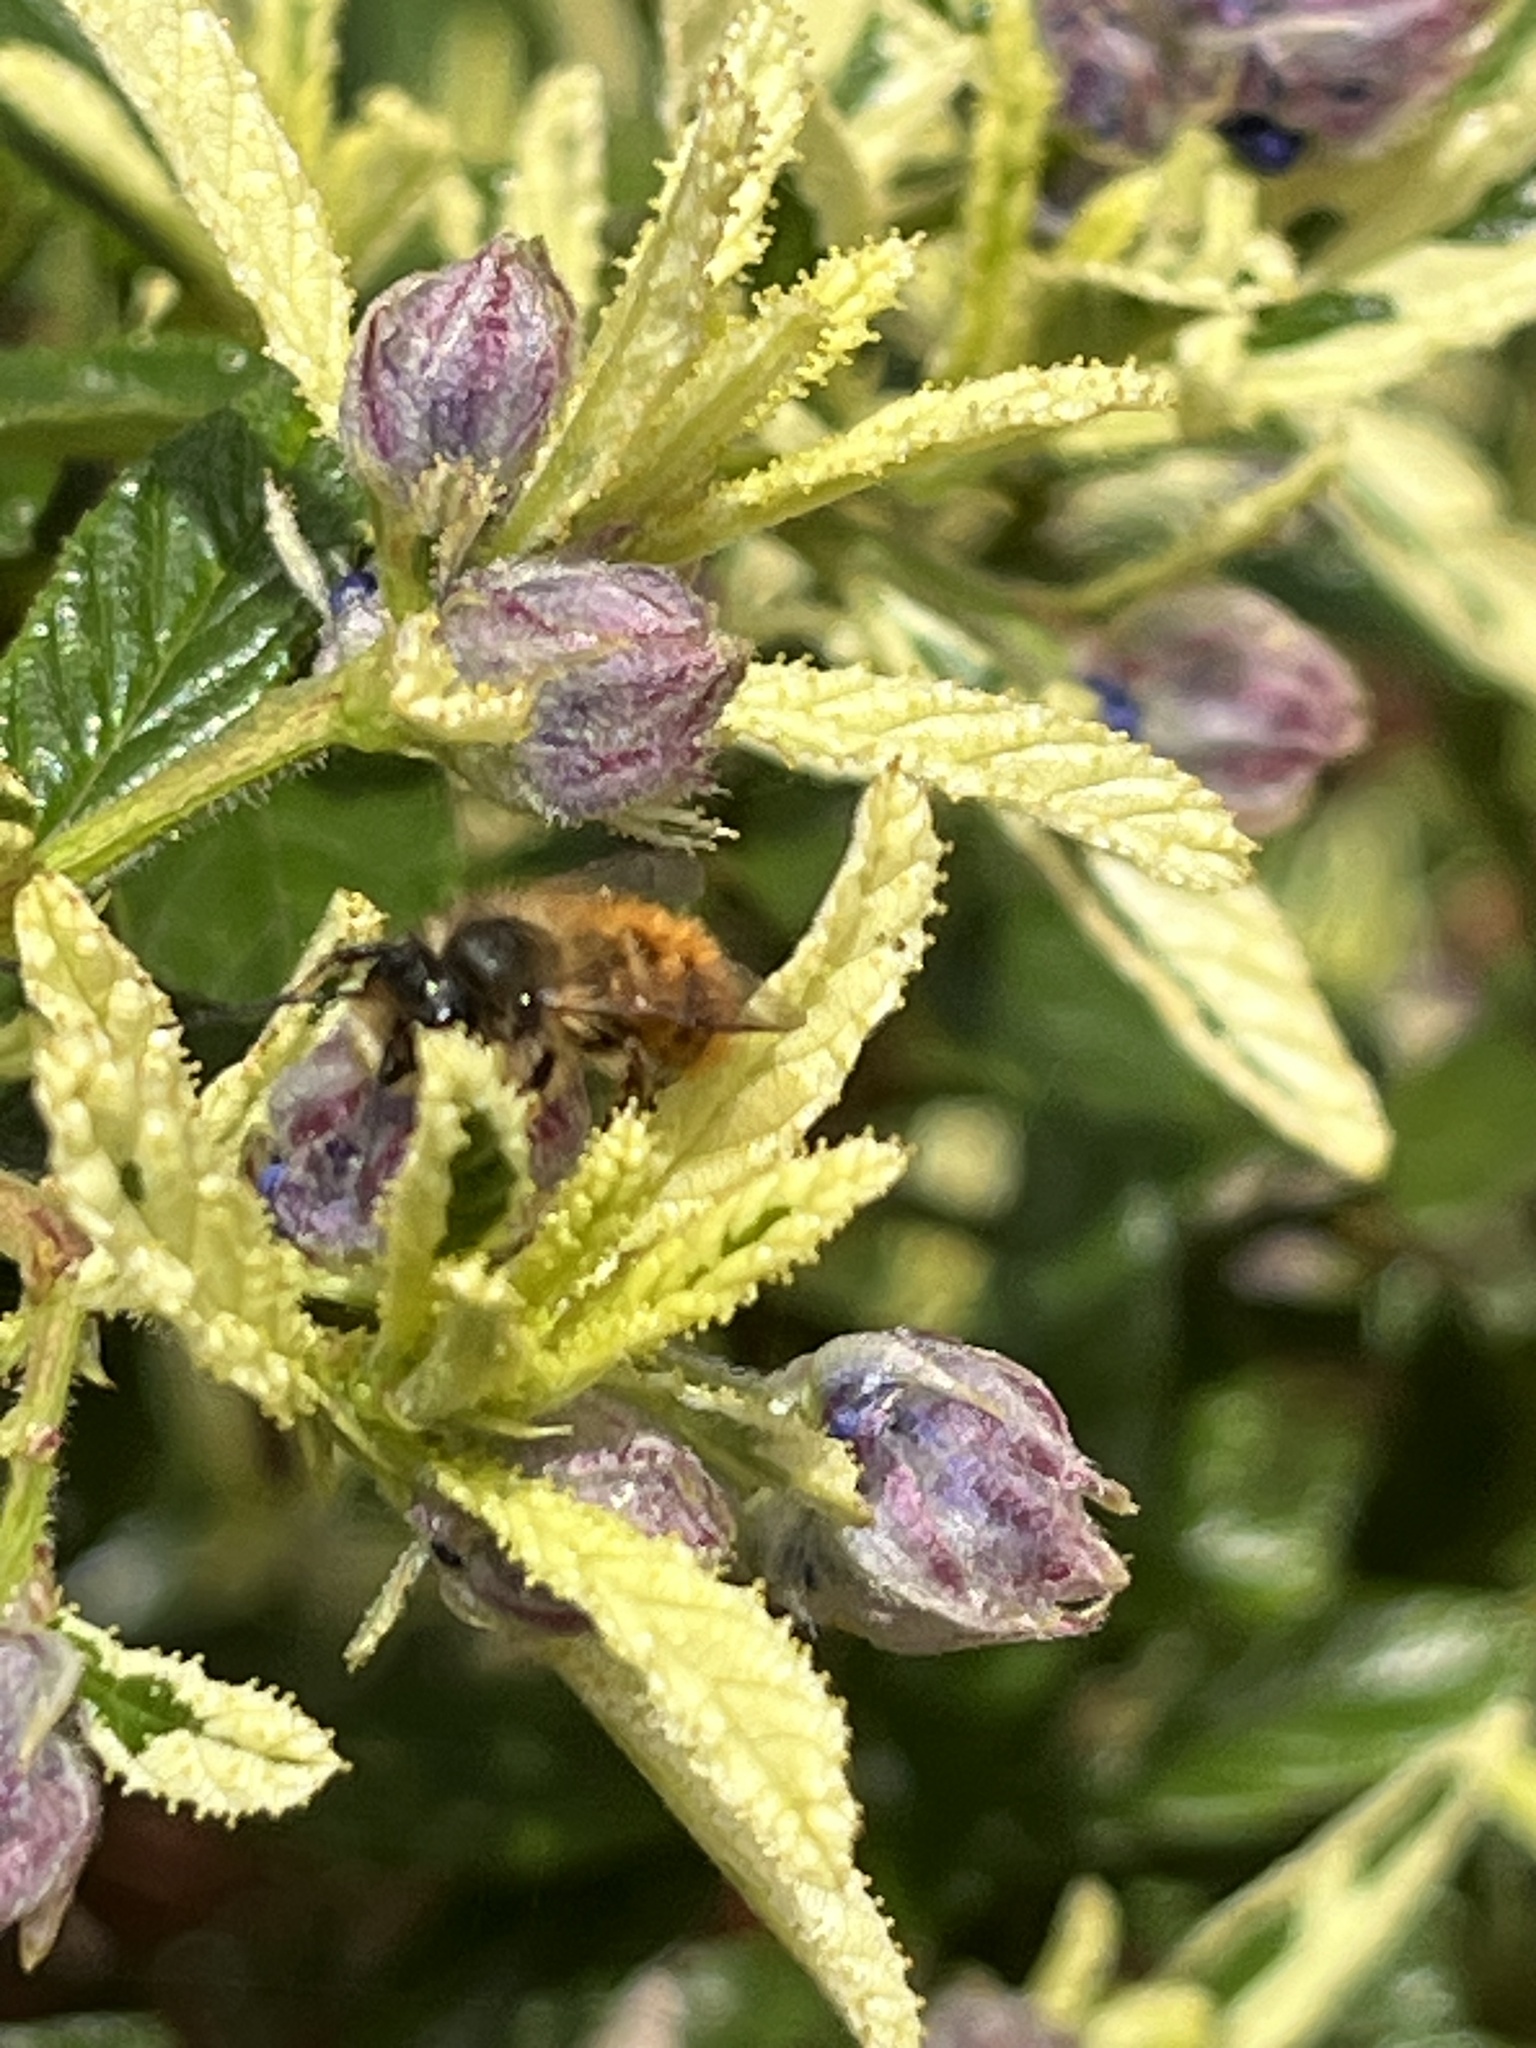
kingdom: Animalia
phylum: Arthropoda
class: Insecta
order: Hymenoptera
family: Megachilidae
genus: Osmia
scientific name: Osmia bicornis
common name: Red mason bee
